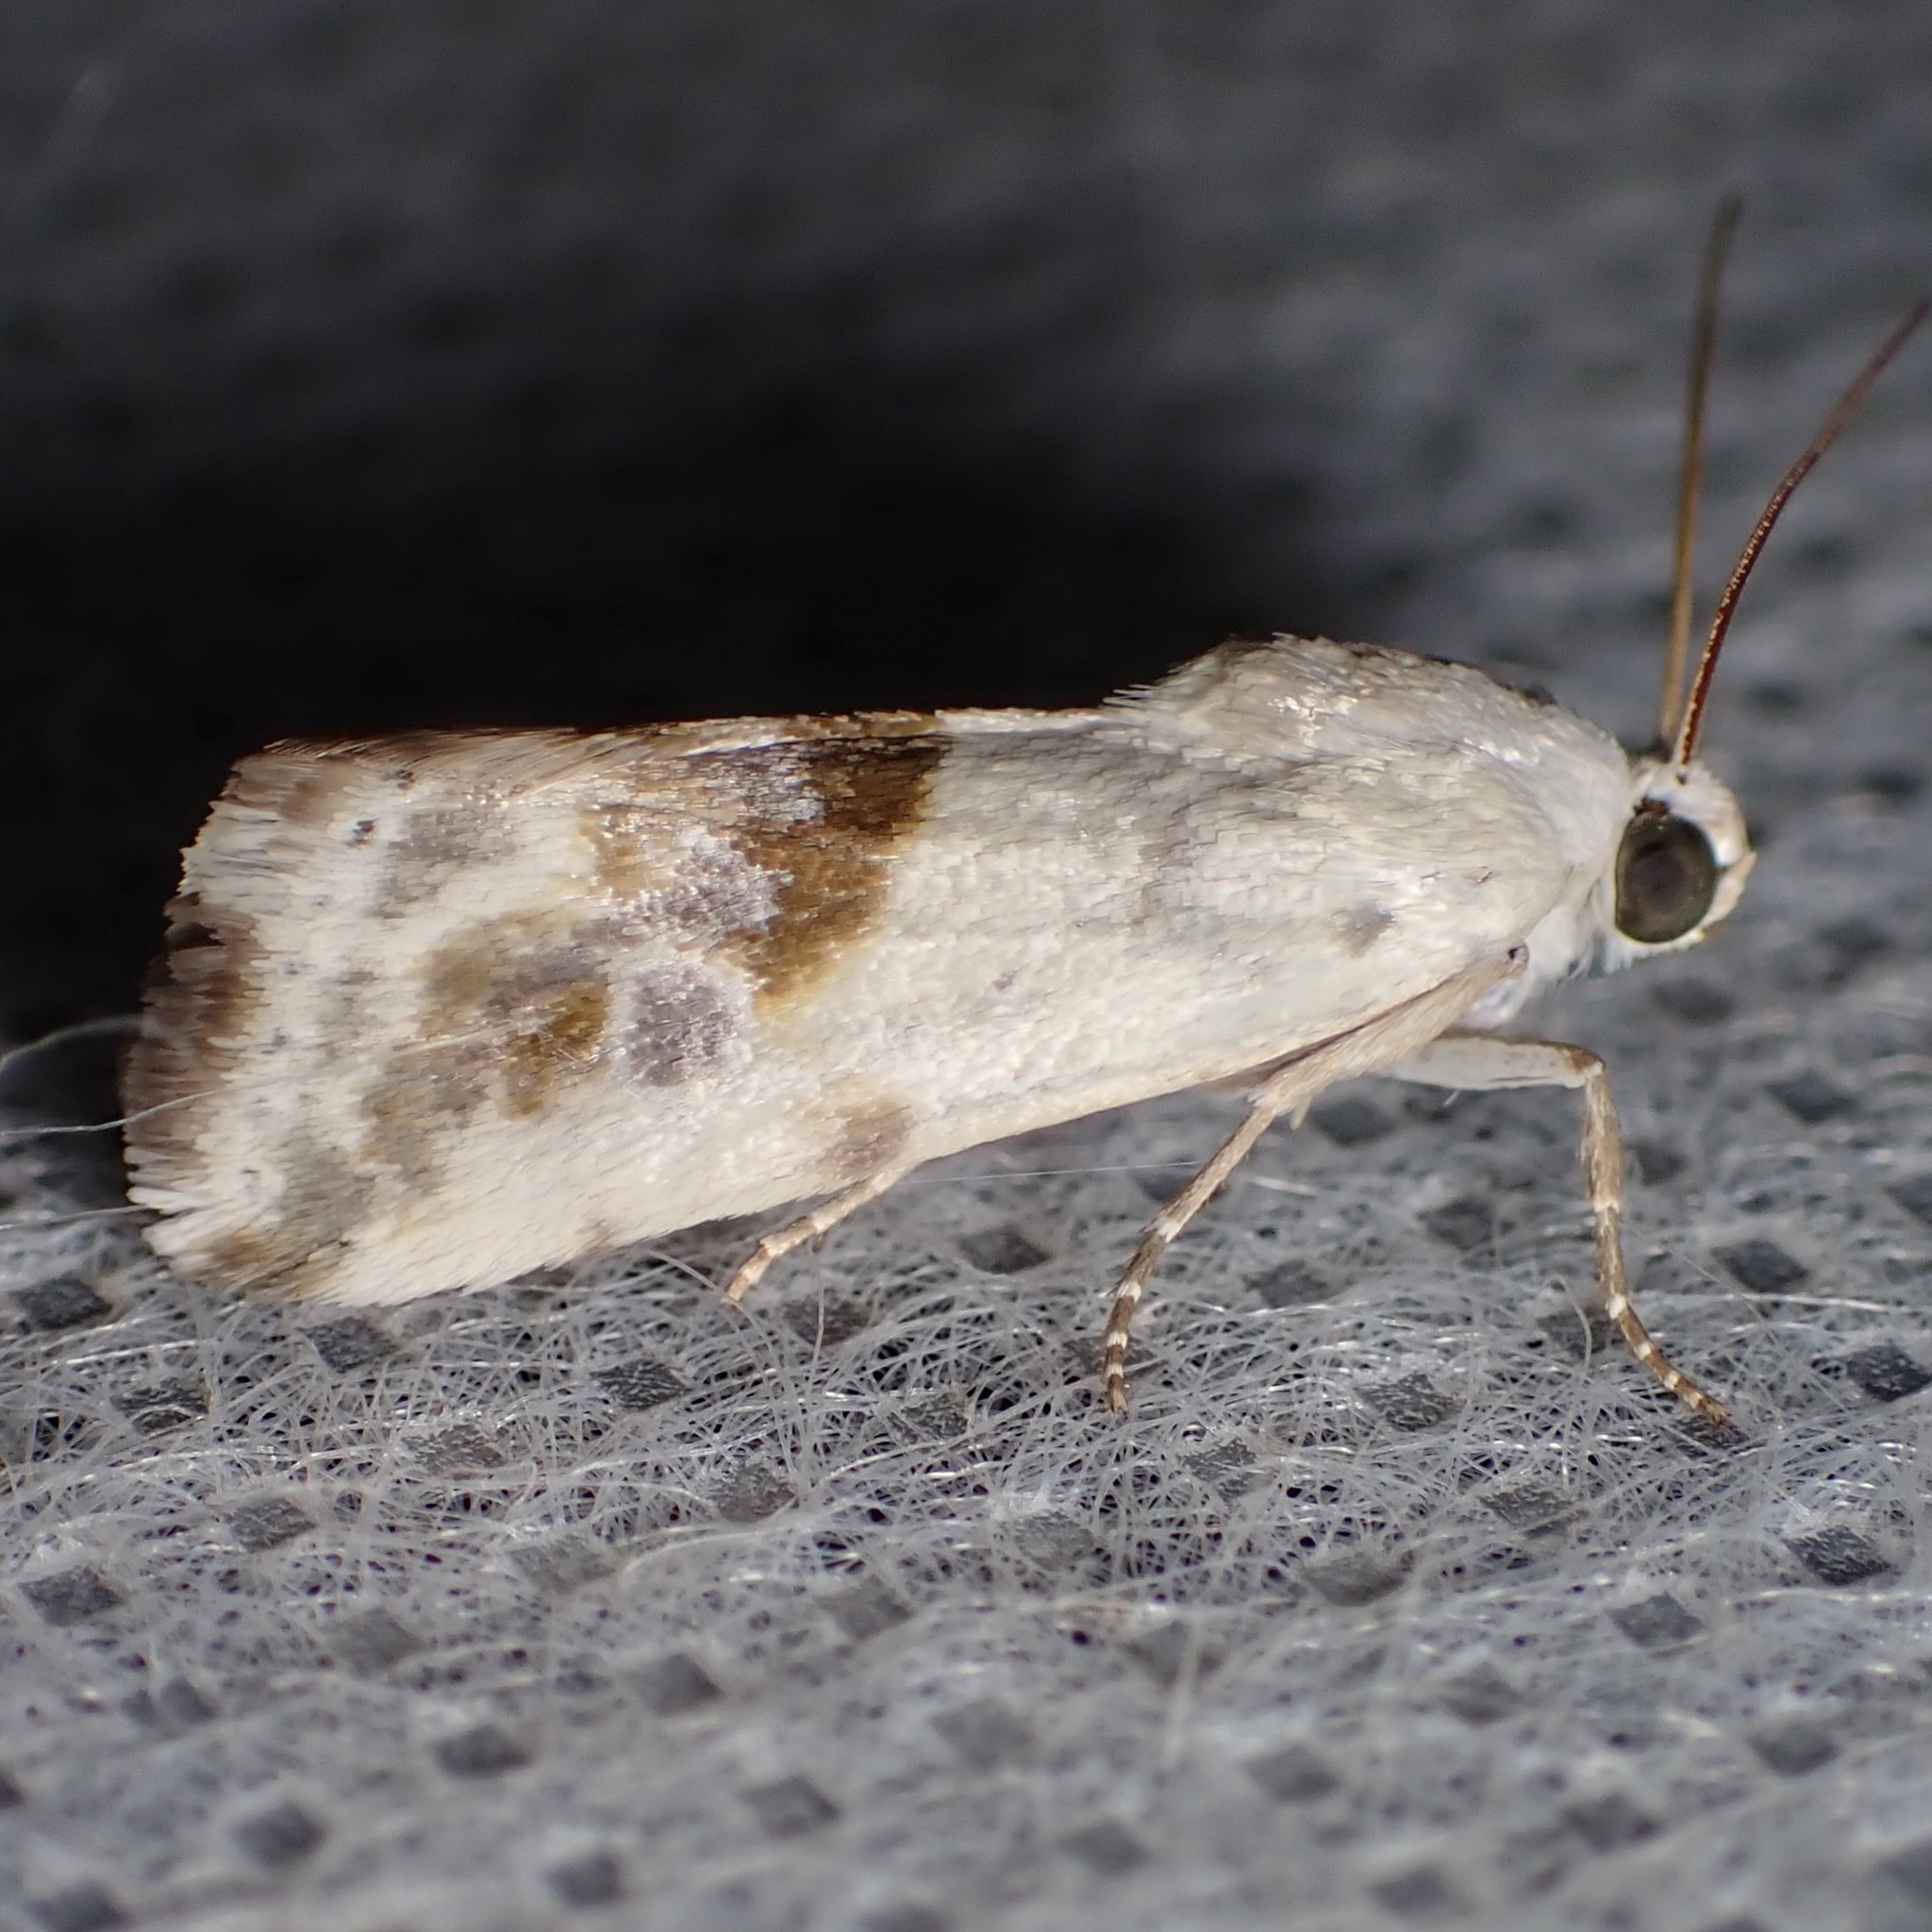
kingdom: Animalia
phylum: Arthropoda
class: Insecta
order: Lepidoptera
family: Noctuidae
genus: Acontia
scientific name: Acontia candefacta
